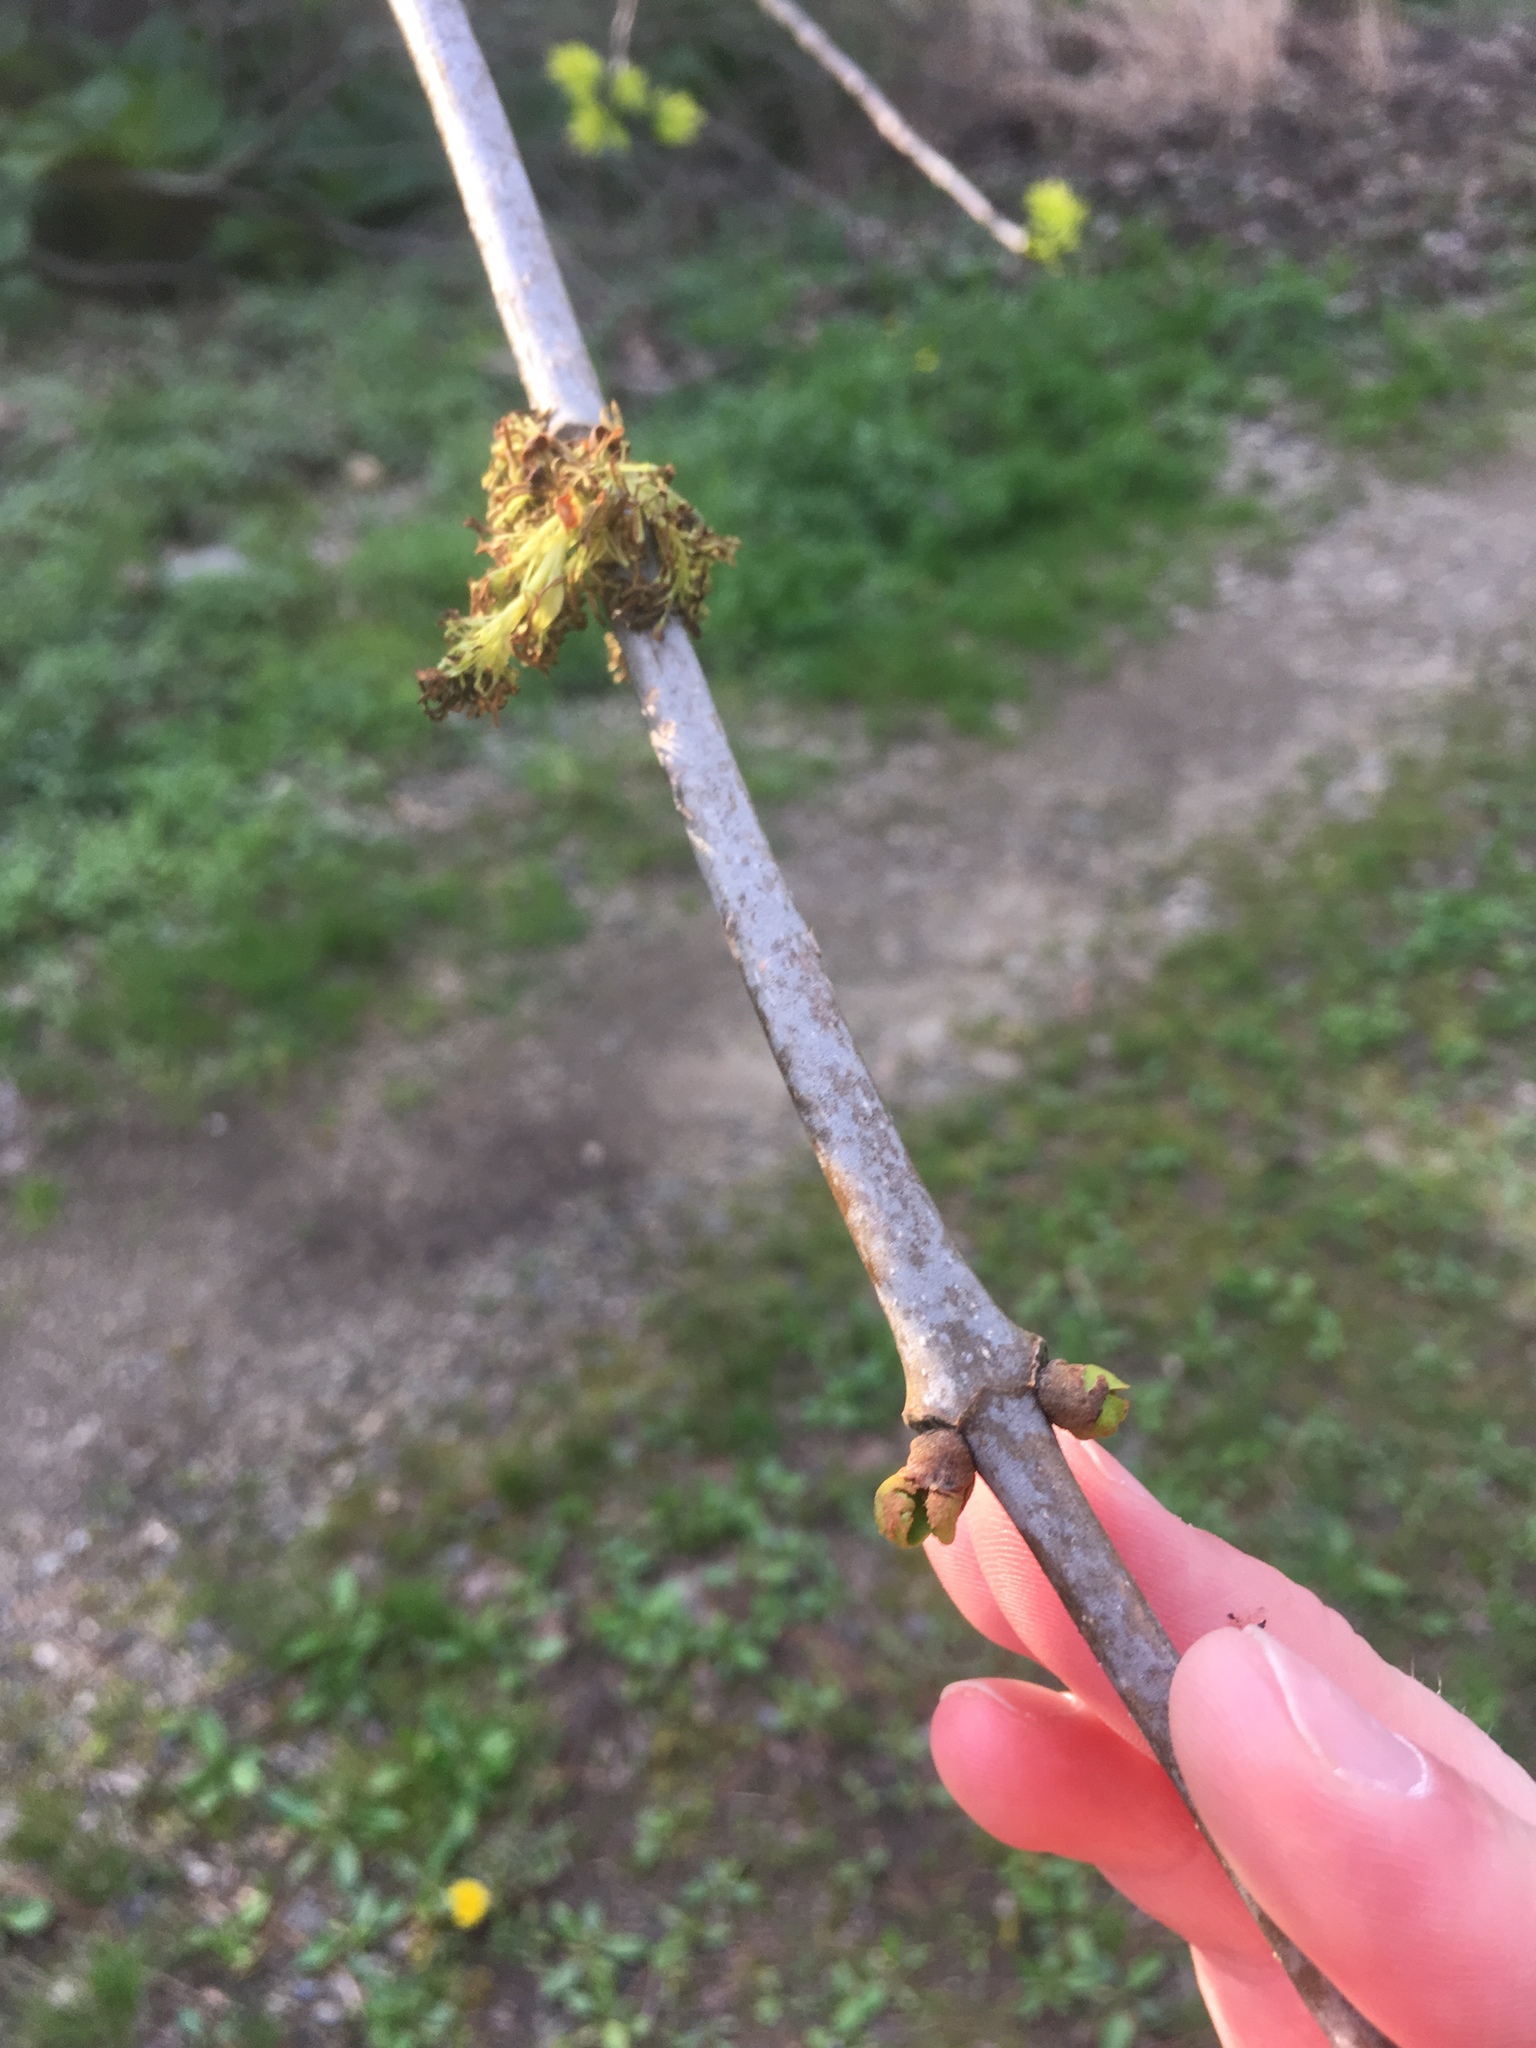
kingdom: Plantae
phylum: Tracheophyta
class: Magnoliopsida
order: Lamiales
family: Oleaceae
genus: Fraxinus
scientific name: Fraxinus americana
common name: White ash
